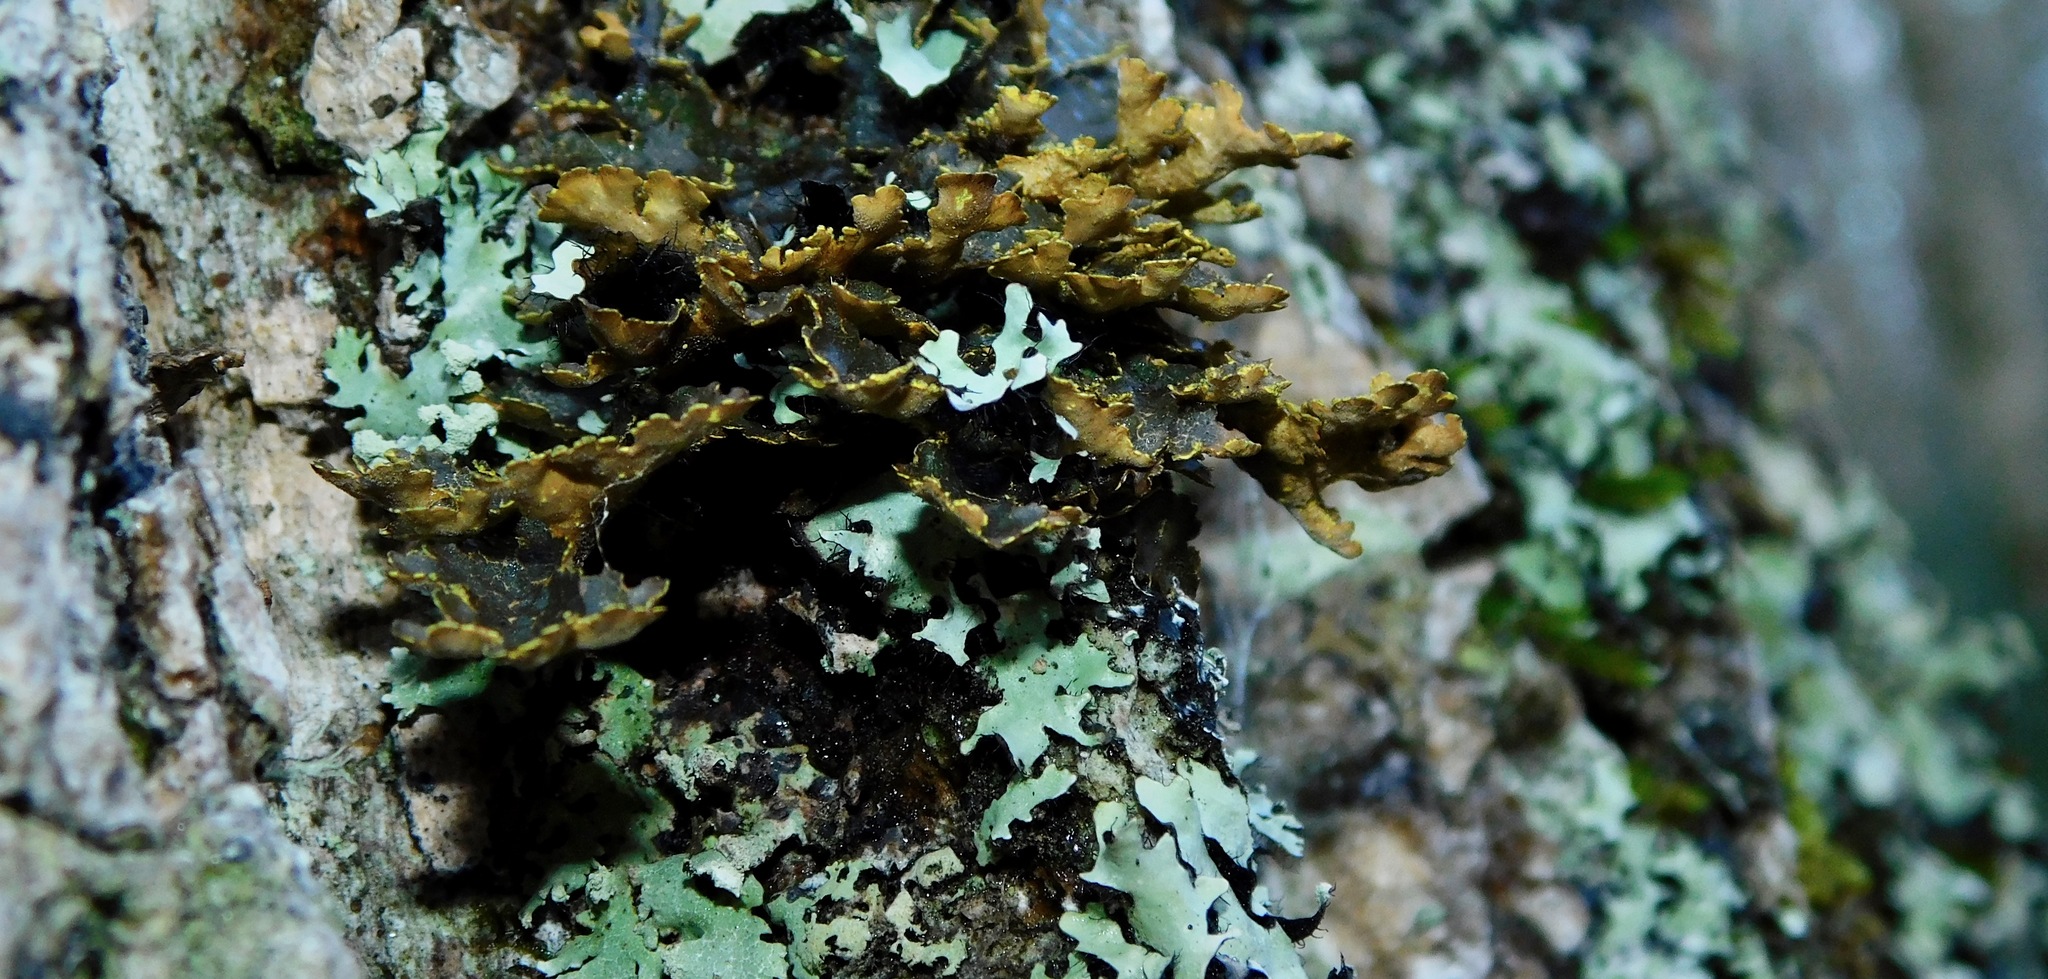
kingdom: Fungi
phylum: Ascomycota
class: Lecanoromycetes
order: Peltigerales
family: Lobariaceae
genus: Pseudocyphellaria
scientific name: Pseudocyphellaria holarctica
